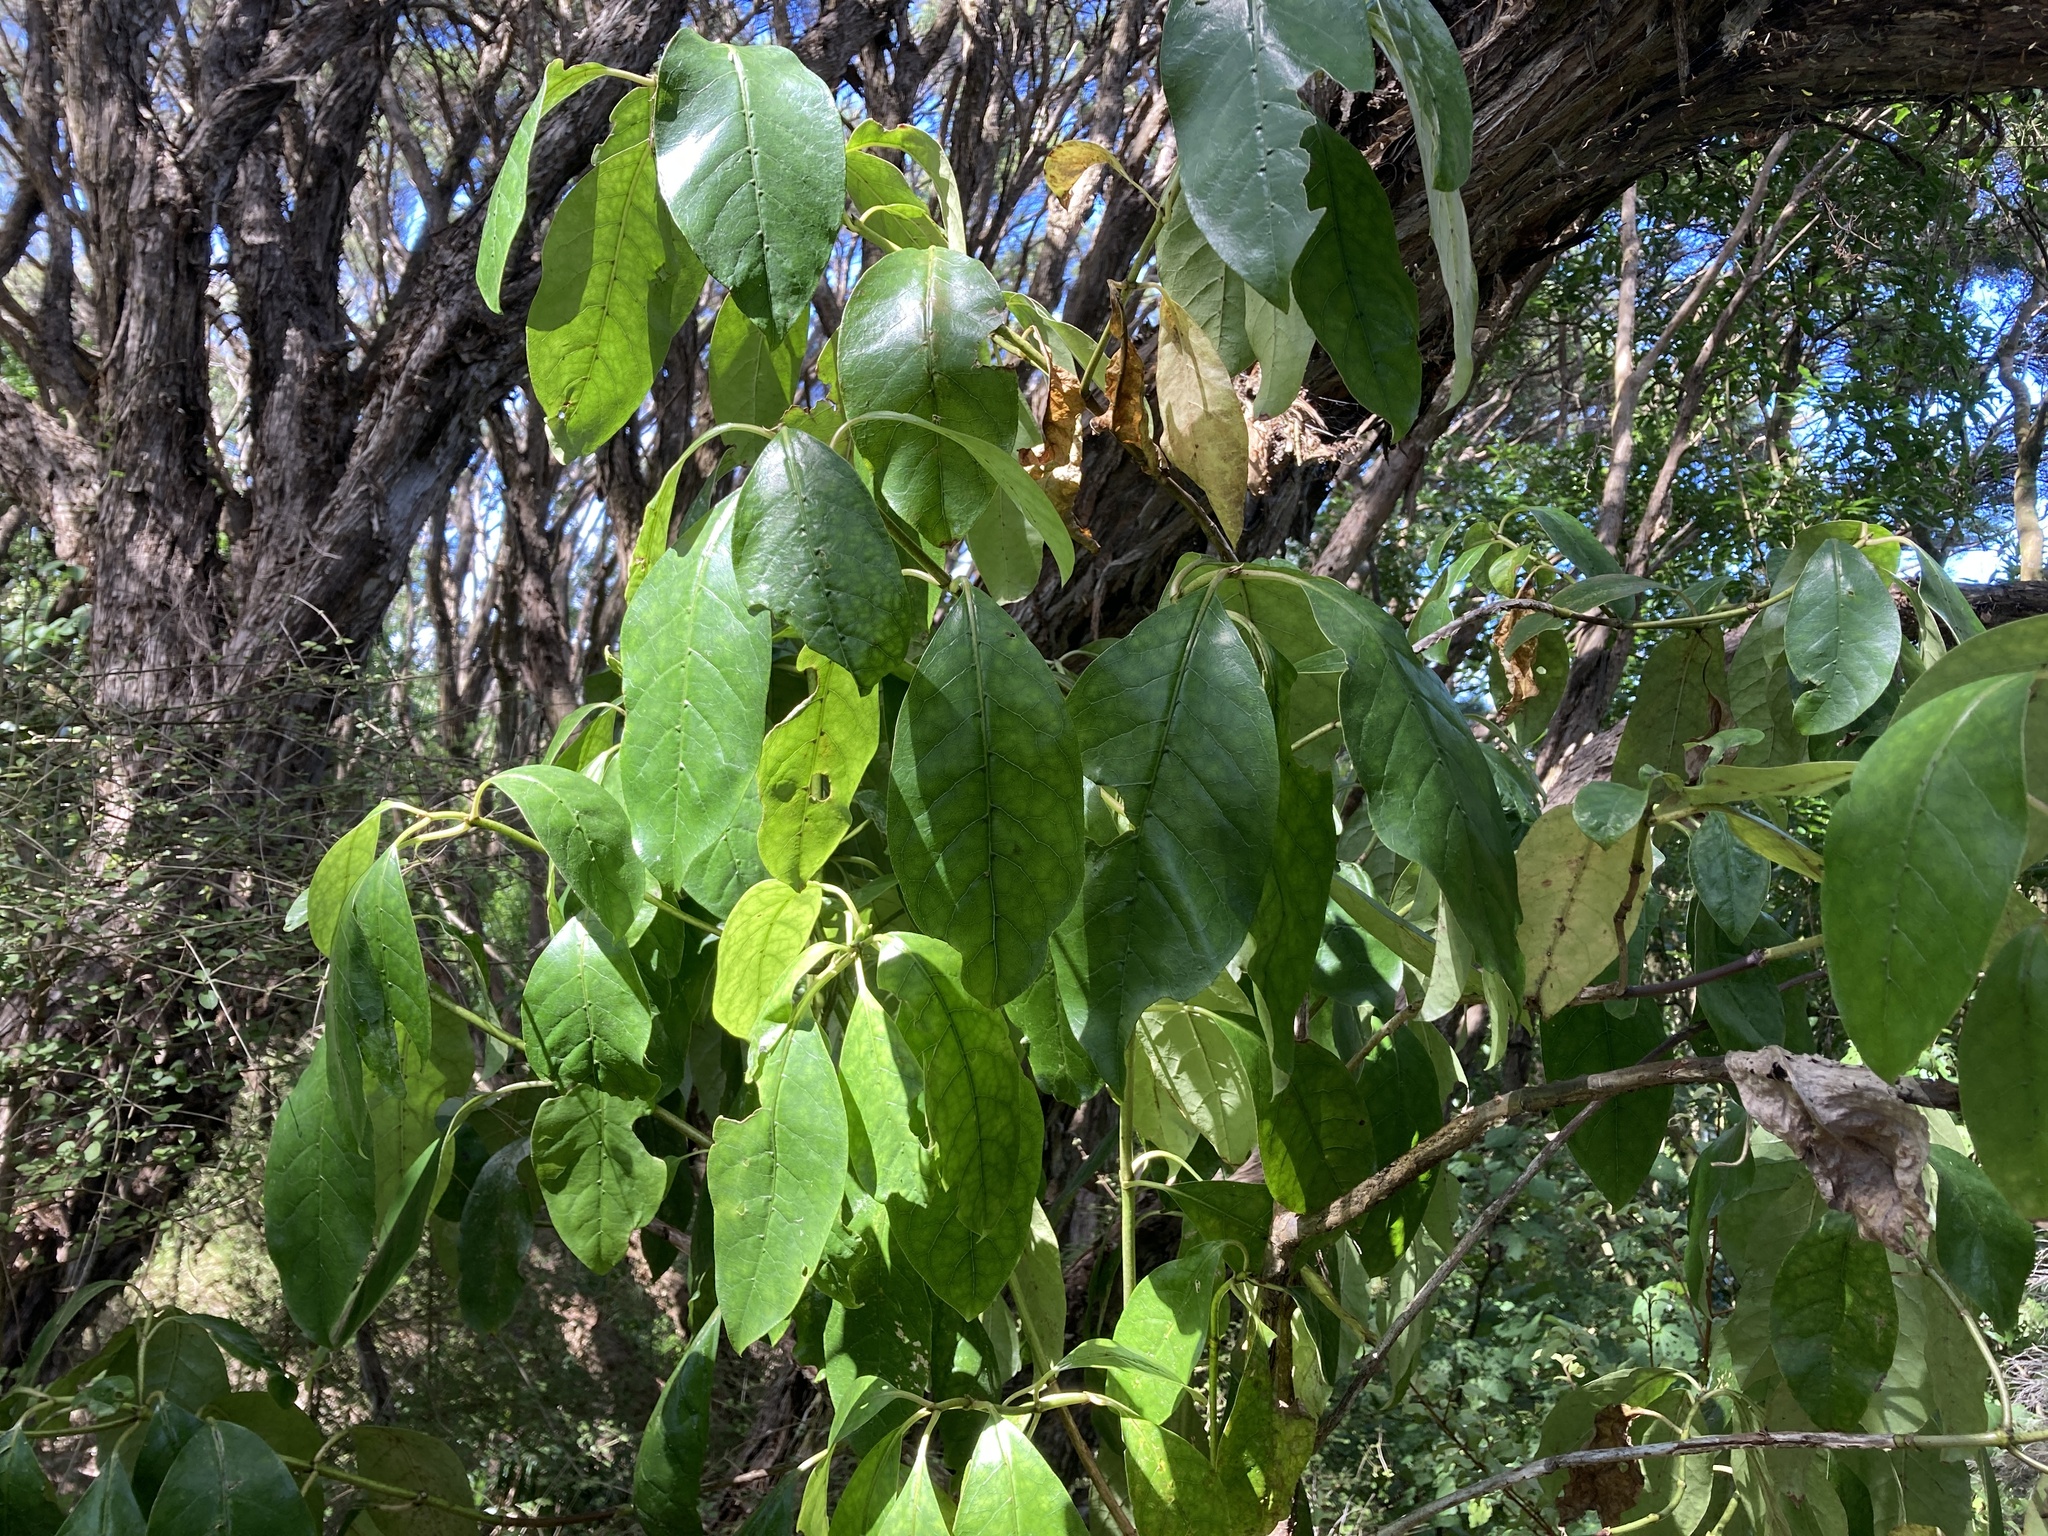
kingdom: Plantae
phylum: Tracheophyta
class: Magnoliopsida
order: Gentianales
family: Rubiaceae
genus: Coprosma
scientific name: Coprosma autumnalis
